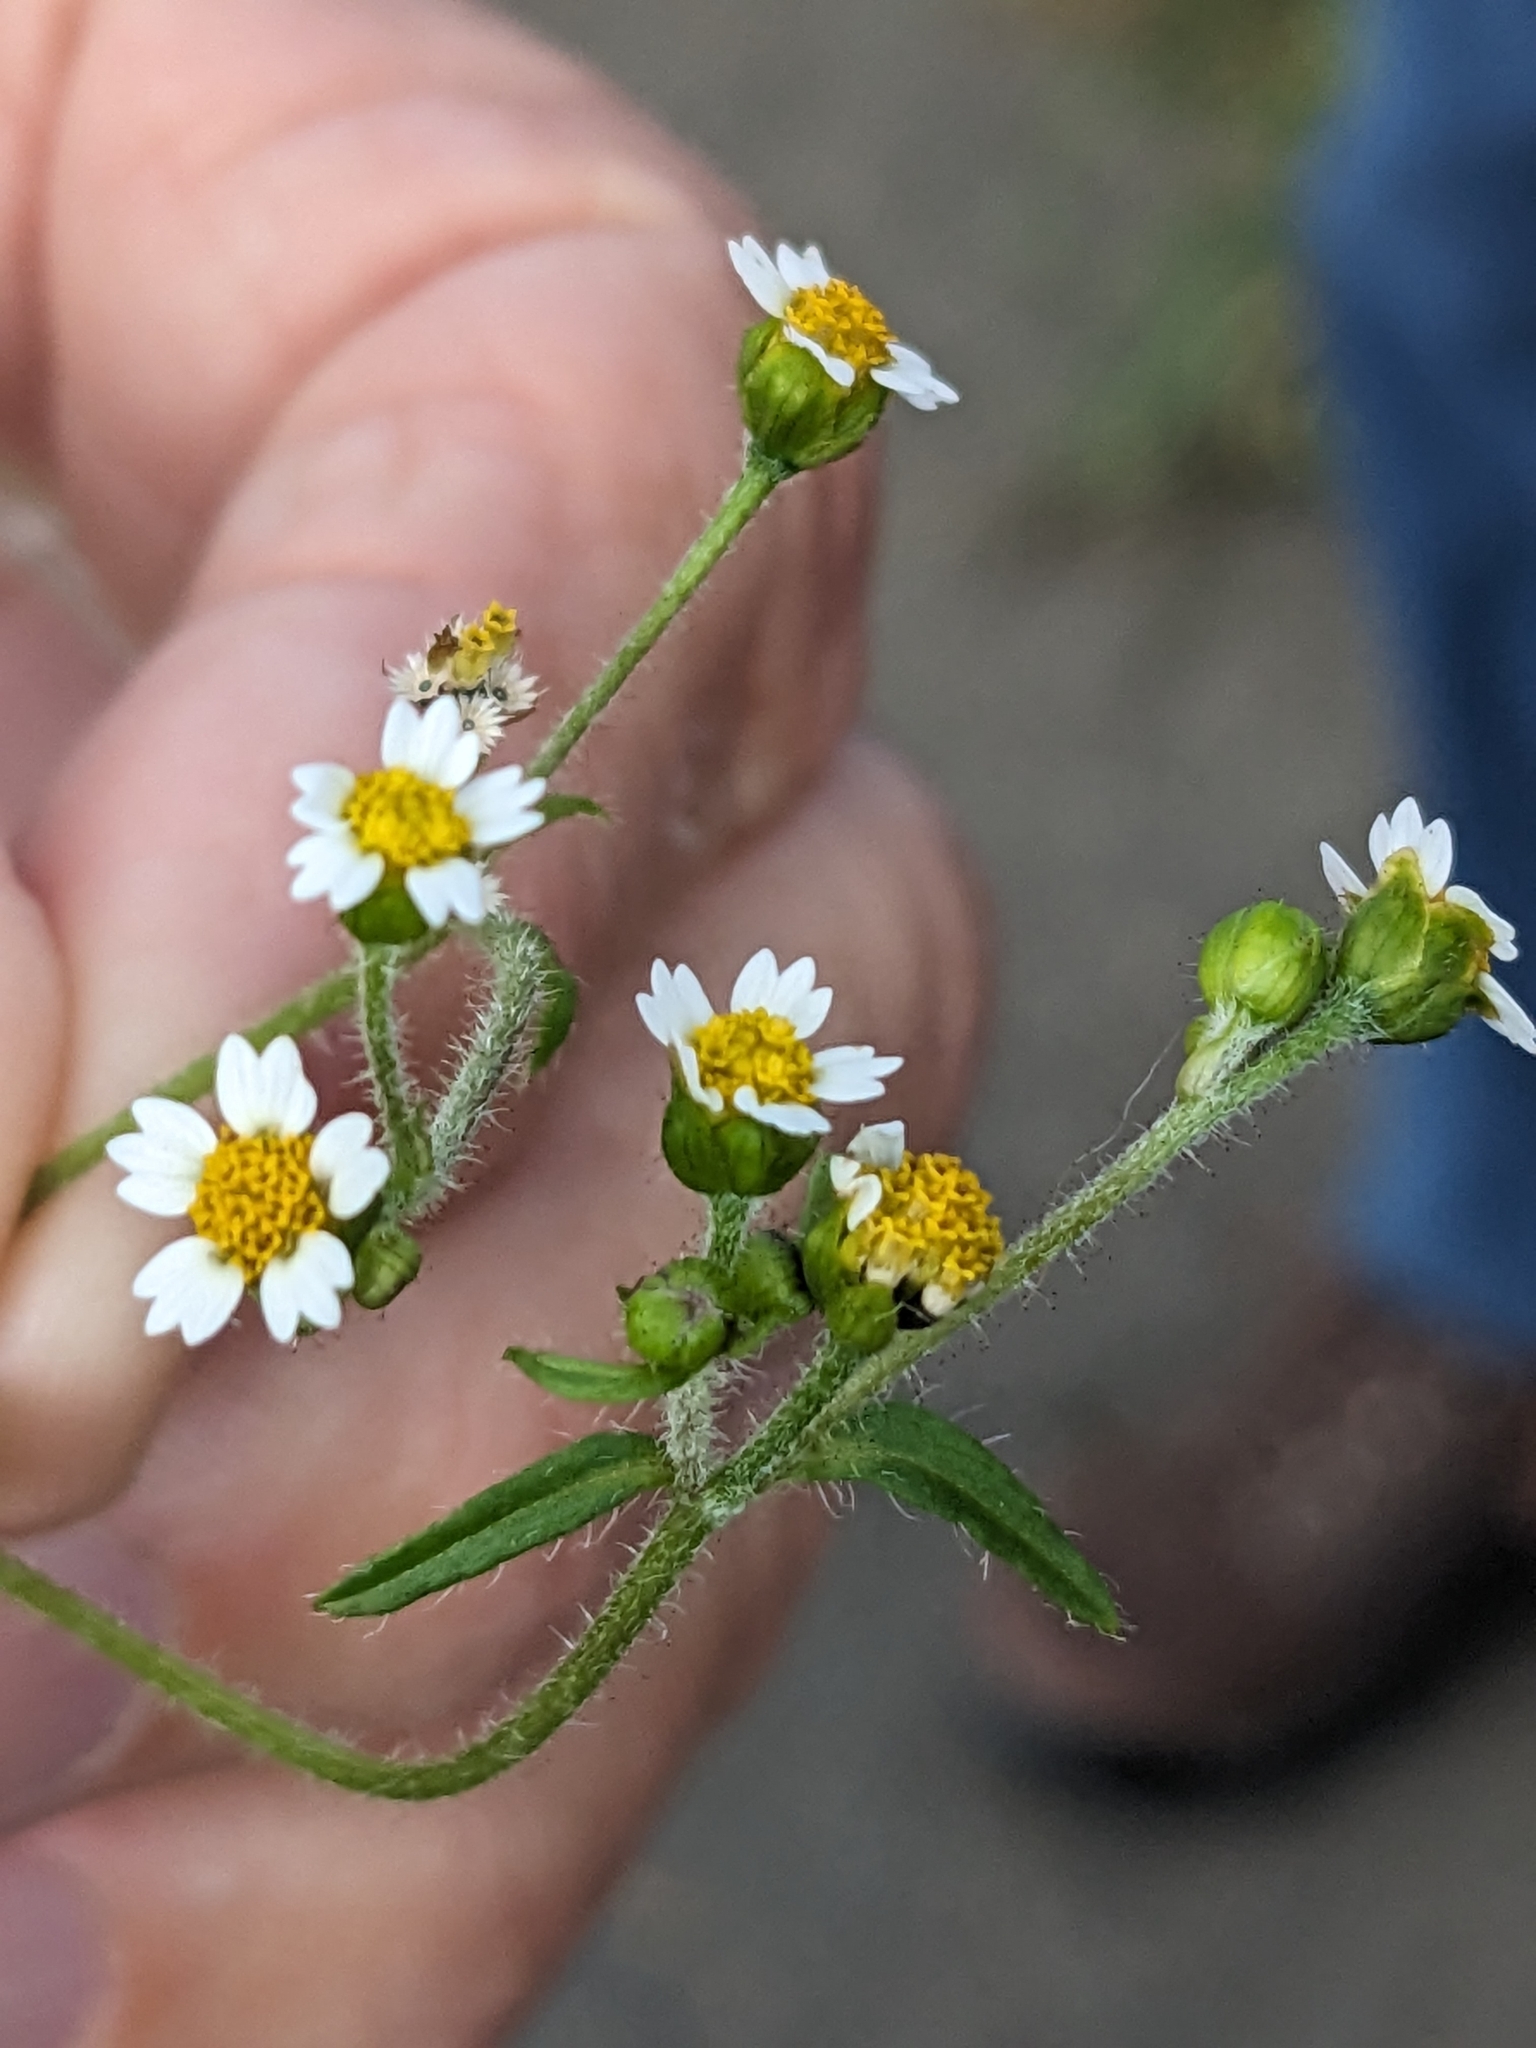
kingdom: Plantae
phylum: Tracheophyta
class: Magnoliopsida
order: Asterales
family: Asteraceae
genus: Galinsoga
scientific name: Galinsoga quadriradiata
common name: Shaggy soldier
